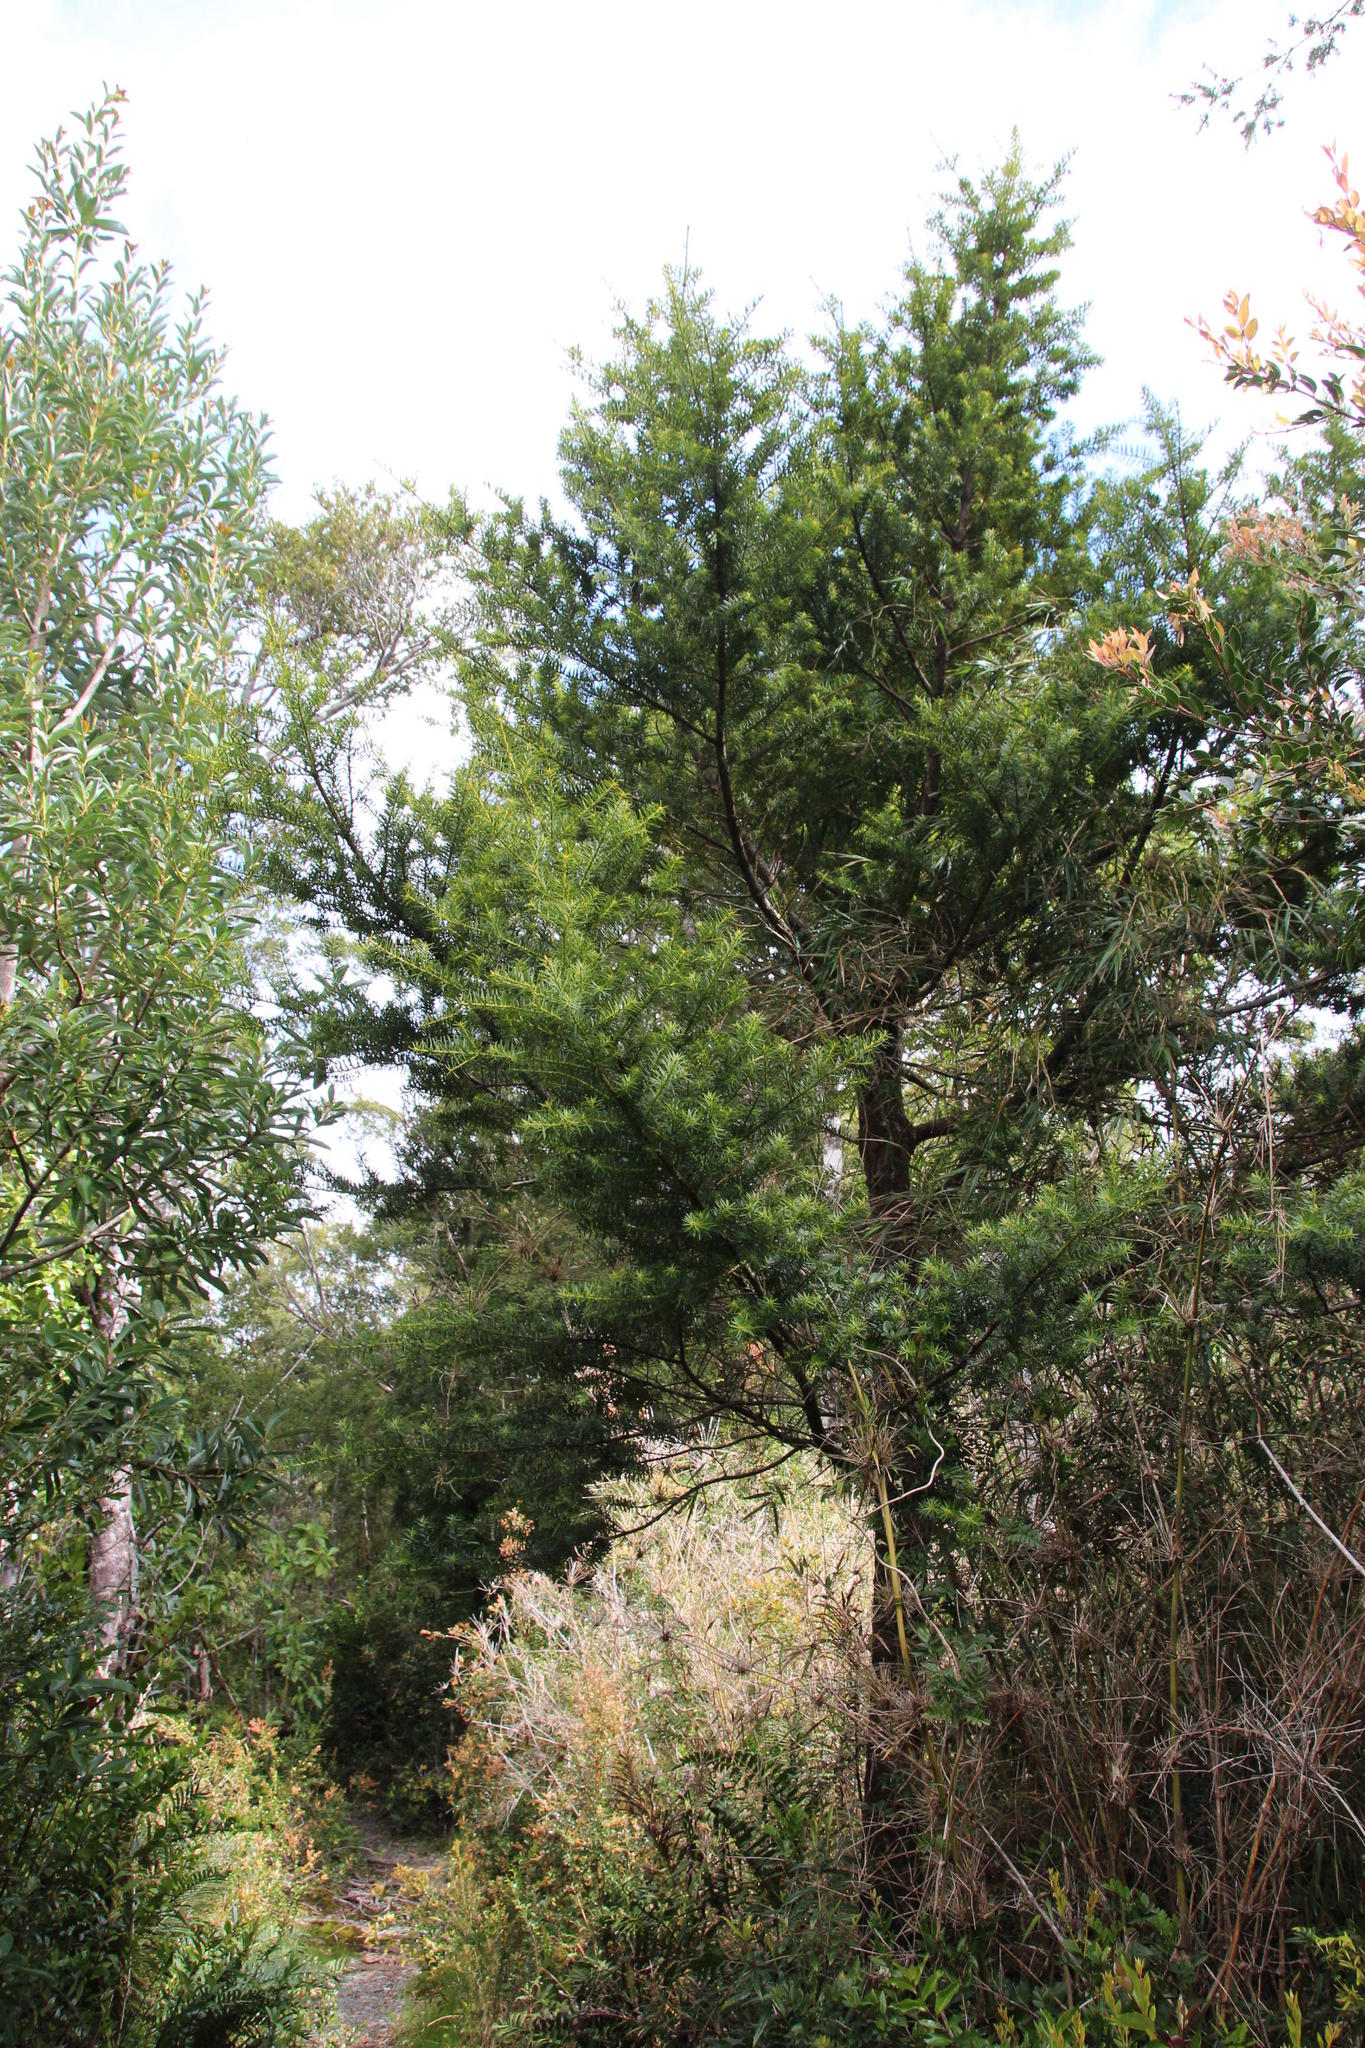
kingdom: Plantae
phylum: Tracheophyta
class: Pinopsida
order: Pinales
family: Podocarpaceae
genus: Podocarpus
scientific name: Podocarpus nubigenus
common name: Cloud podocarp
